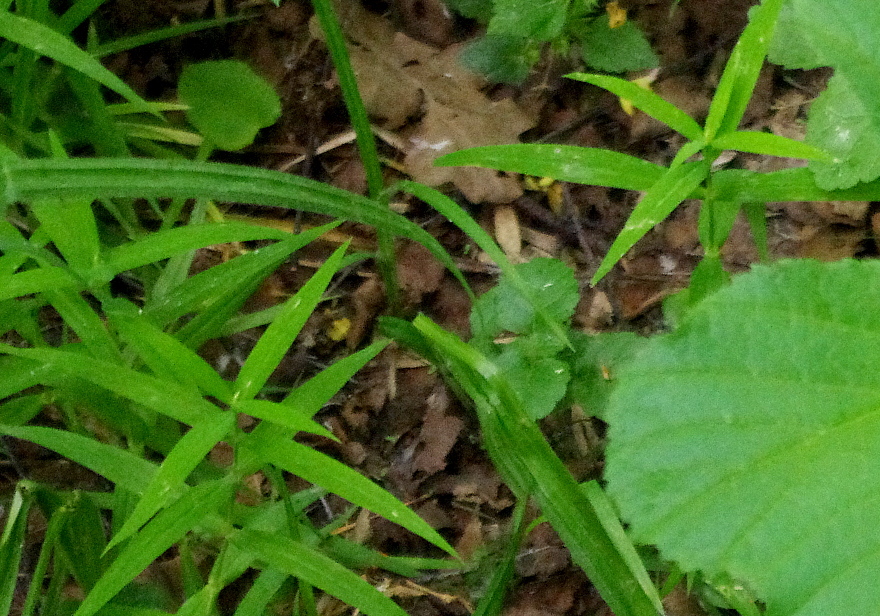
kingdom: Plantae
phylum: Tracheophyta
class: Magnoliopsida
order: Caryophyllales
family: Caryophyllaceae
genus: Rabelera
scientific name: Rabelera holostea
